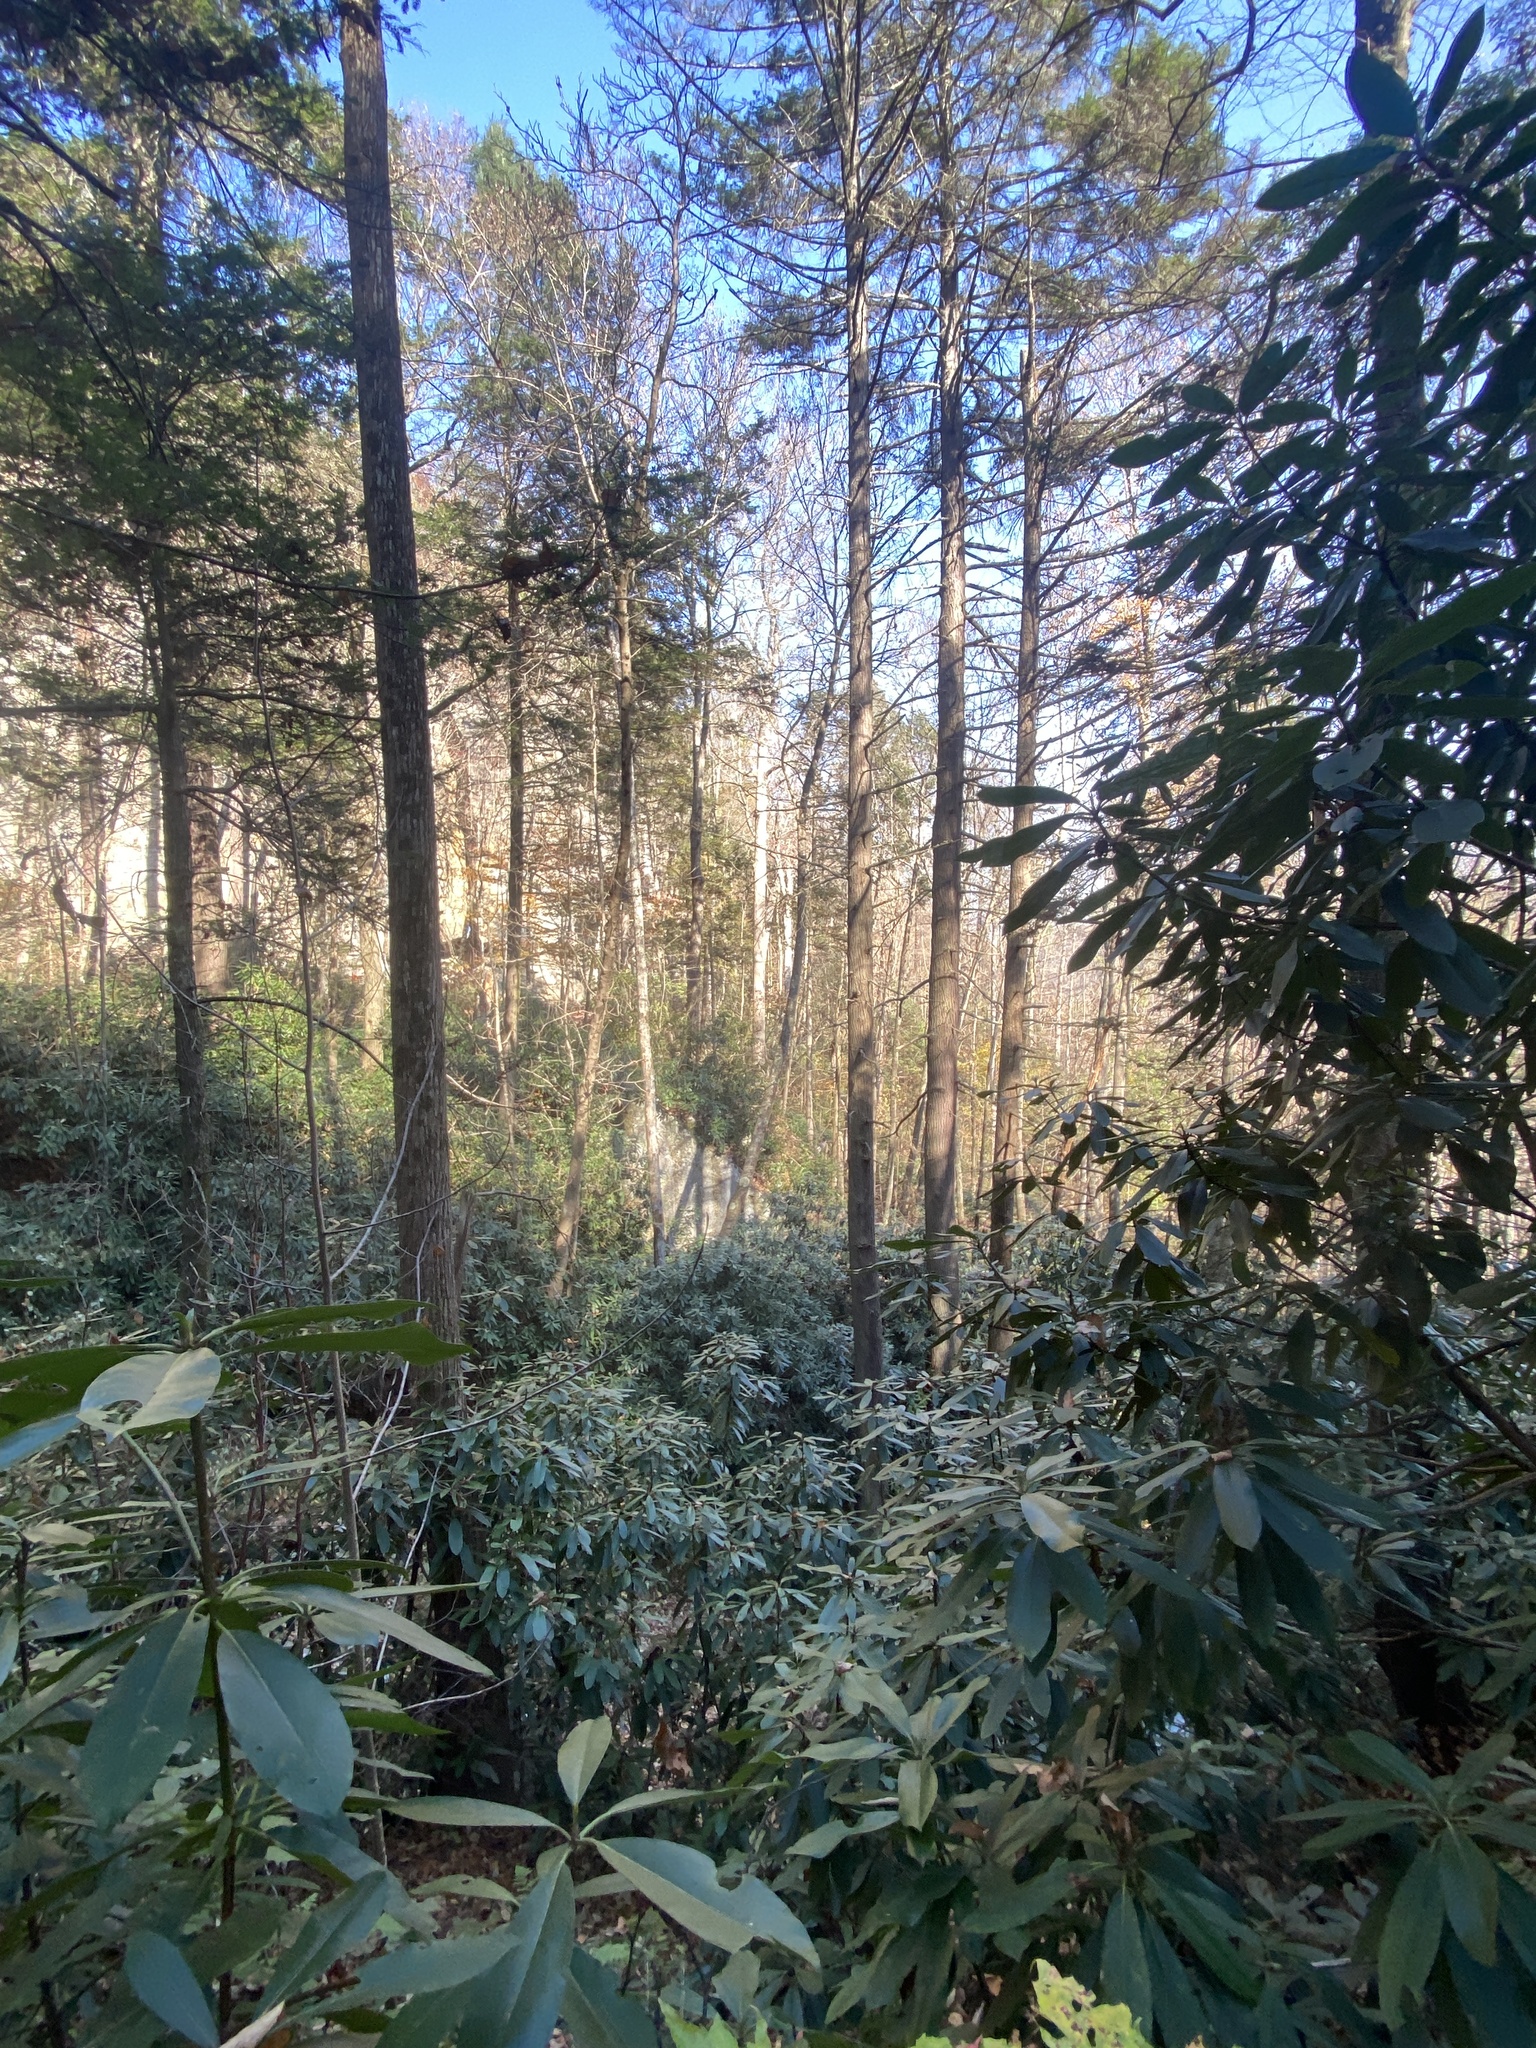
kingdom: Plantae
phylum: Tracheophyta
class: Magnoliopsida
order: Ericales
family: Ericaceae
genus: Rhododendron
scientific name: Rhododendron maximum
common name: Great rhododendron
